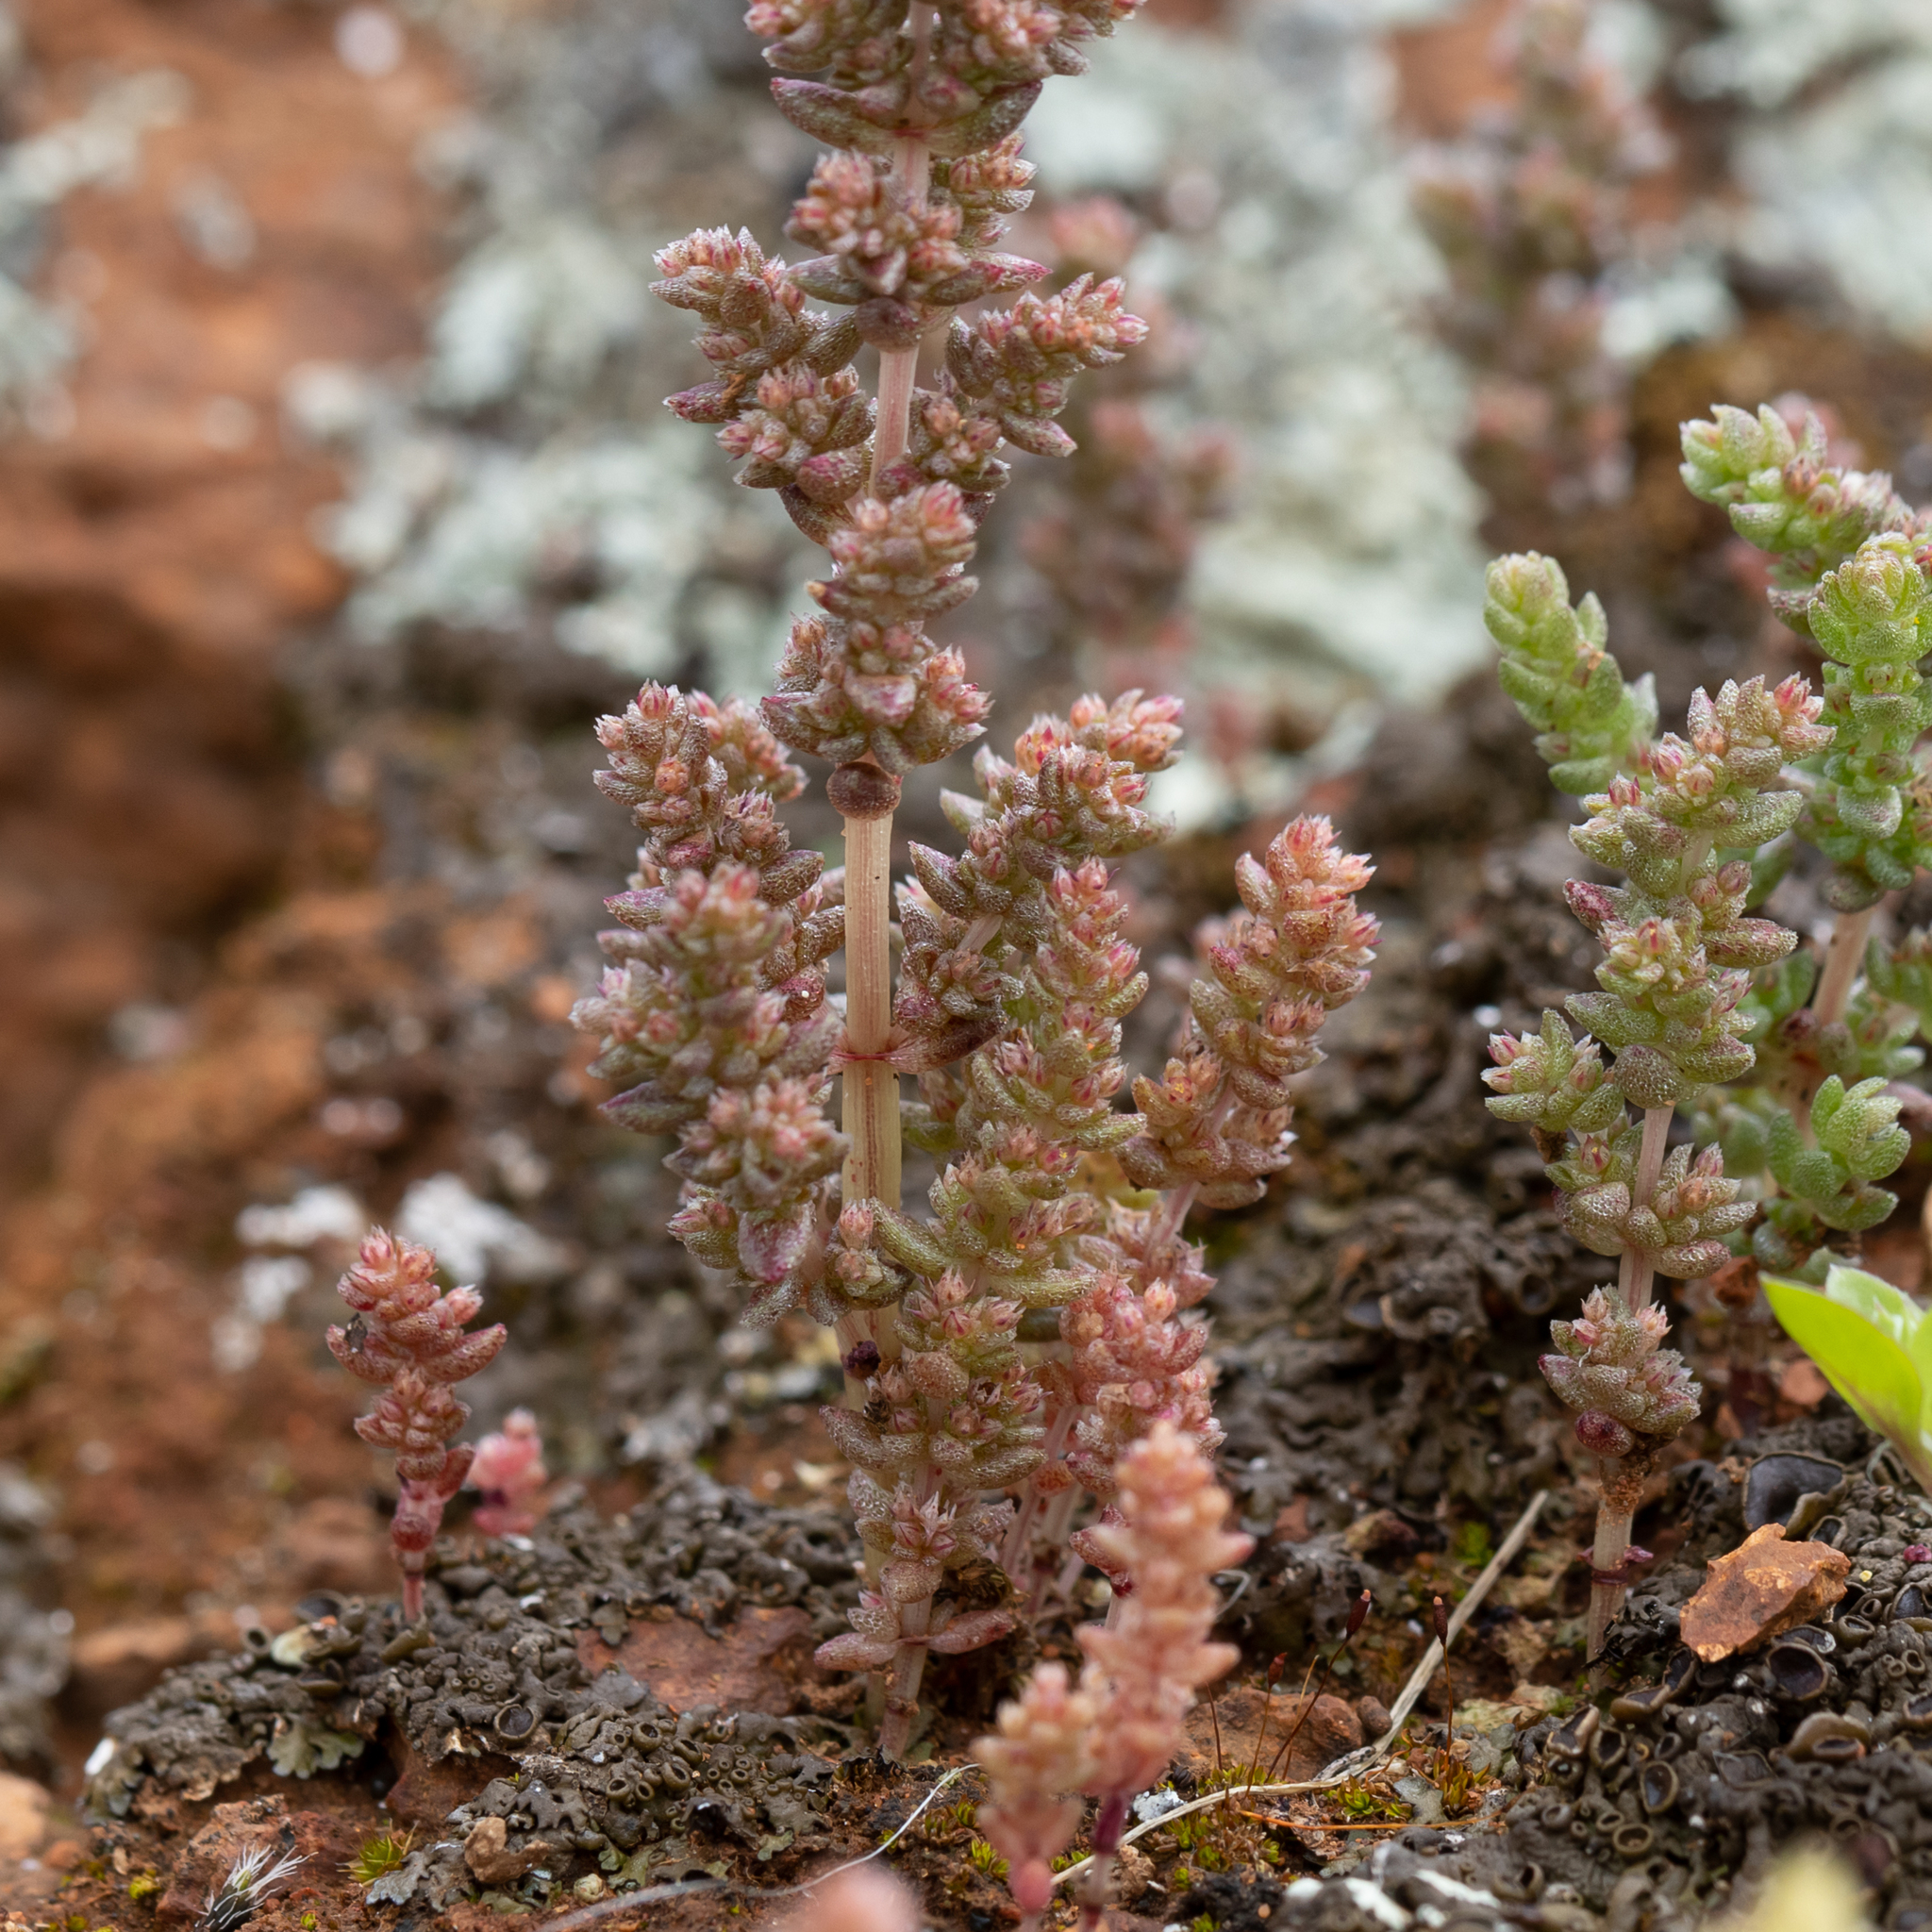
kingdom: Plantae
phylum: Tracheophyta
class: Magnoliopsida
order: Saxifragales
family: Crassulaceae
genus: Crassula
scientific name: Crassula colligata
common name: Pygmyweed
